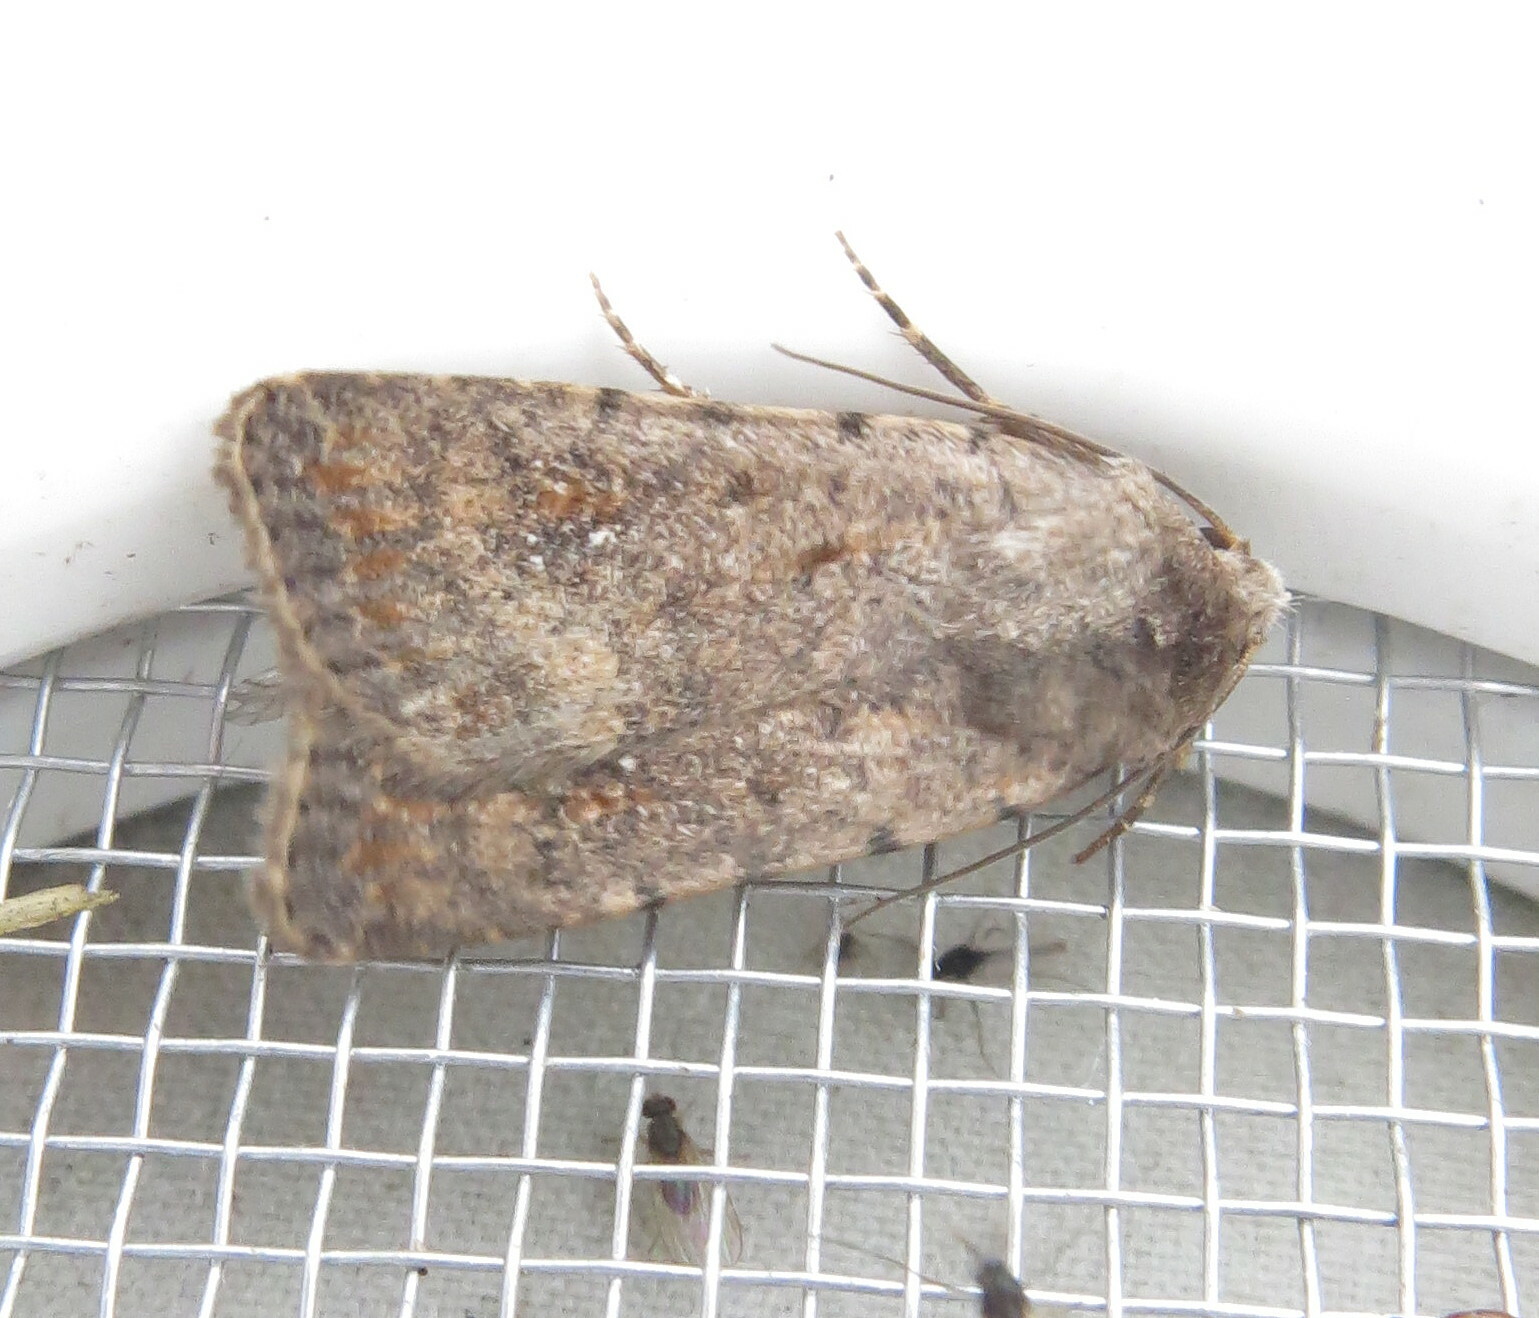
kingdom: Animalia
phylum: Arthropoda
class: Insecta
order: Lepidoptera
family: Noctuidae
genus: Caradrina
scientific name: Caradrina clavipalpis
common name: Pale mottled willow
